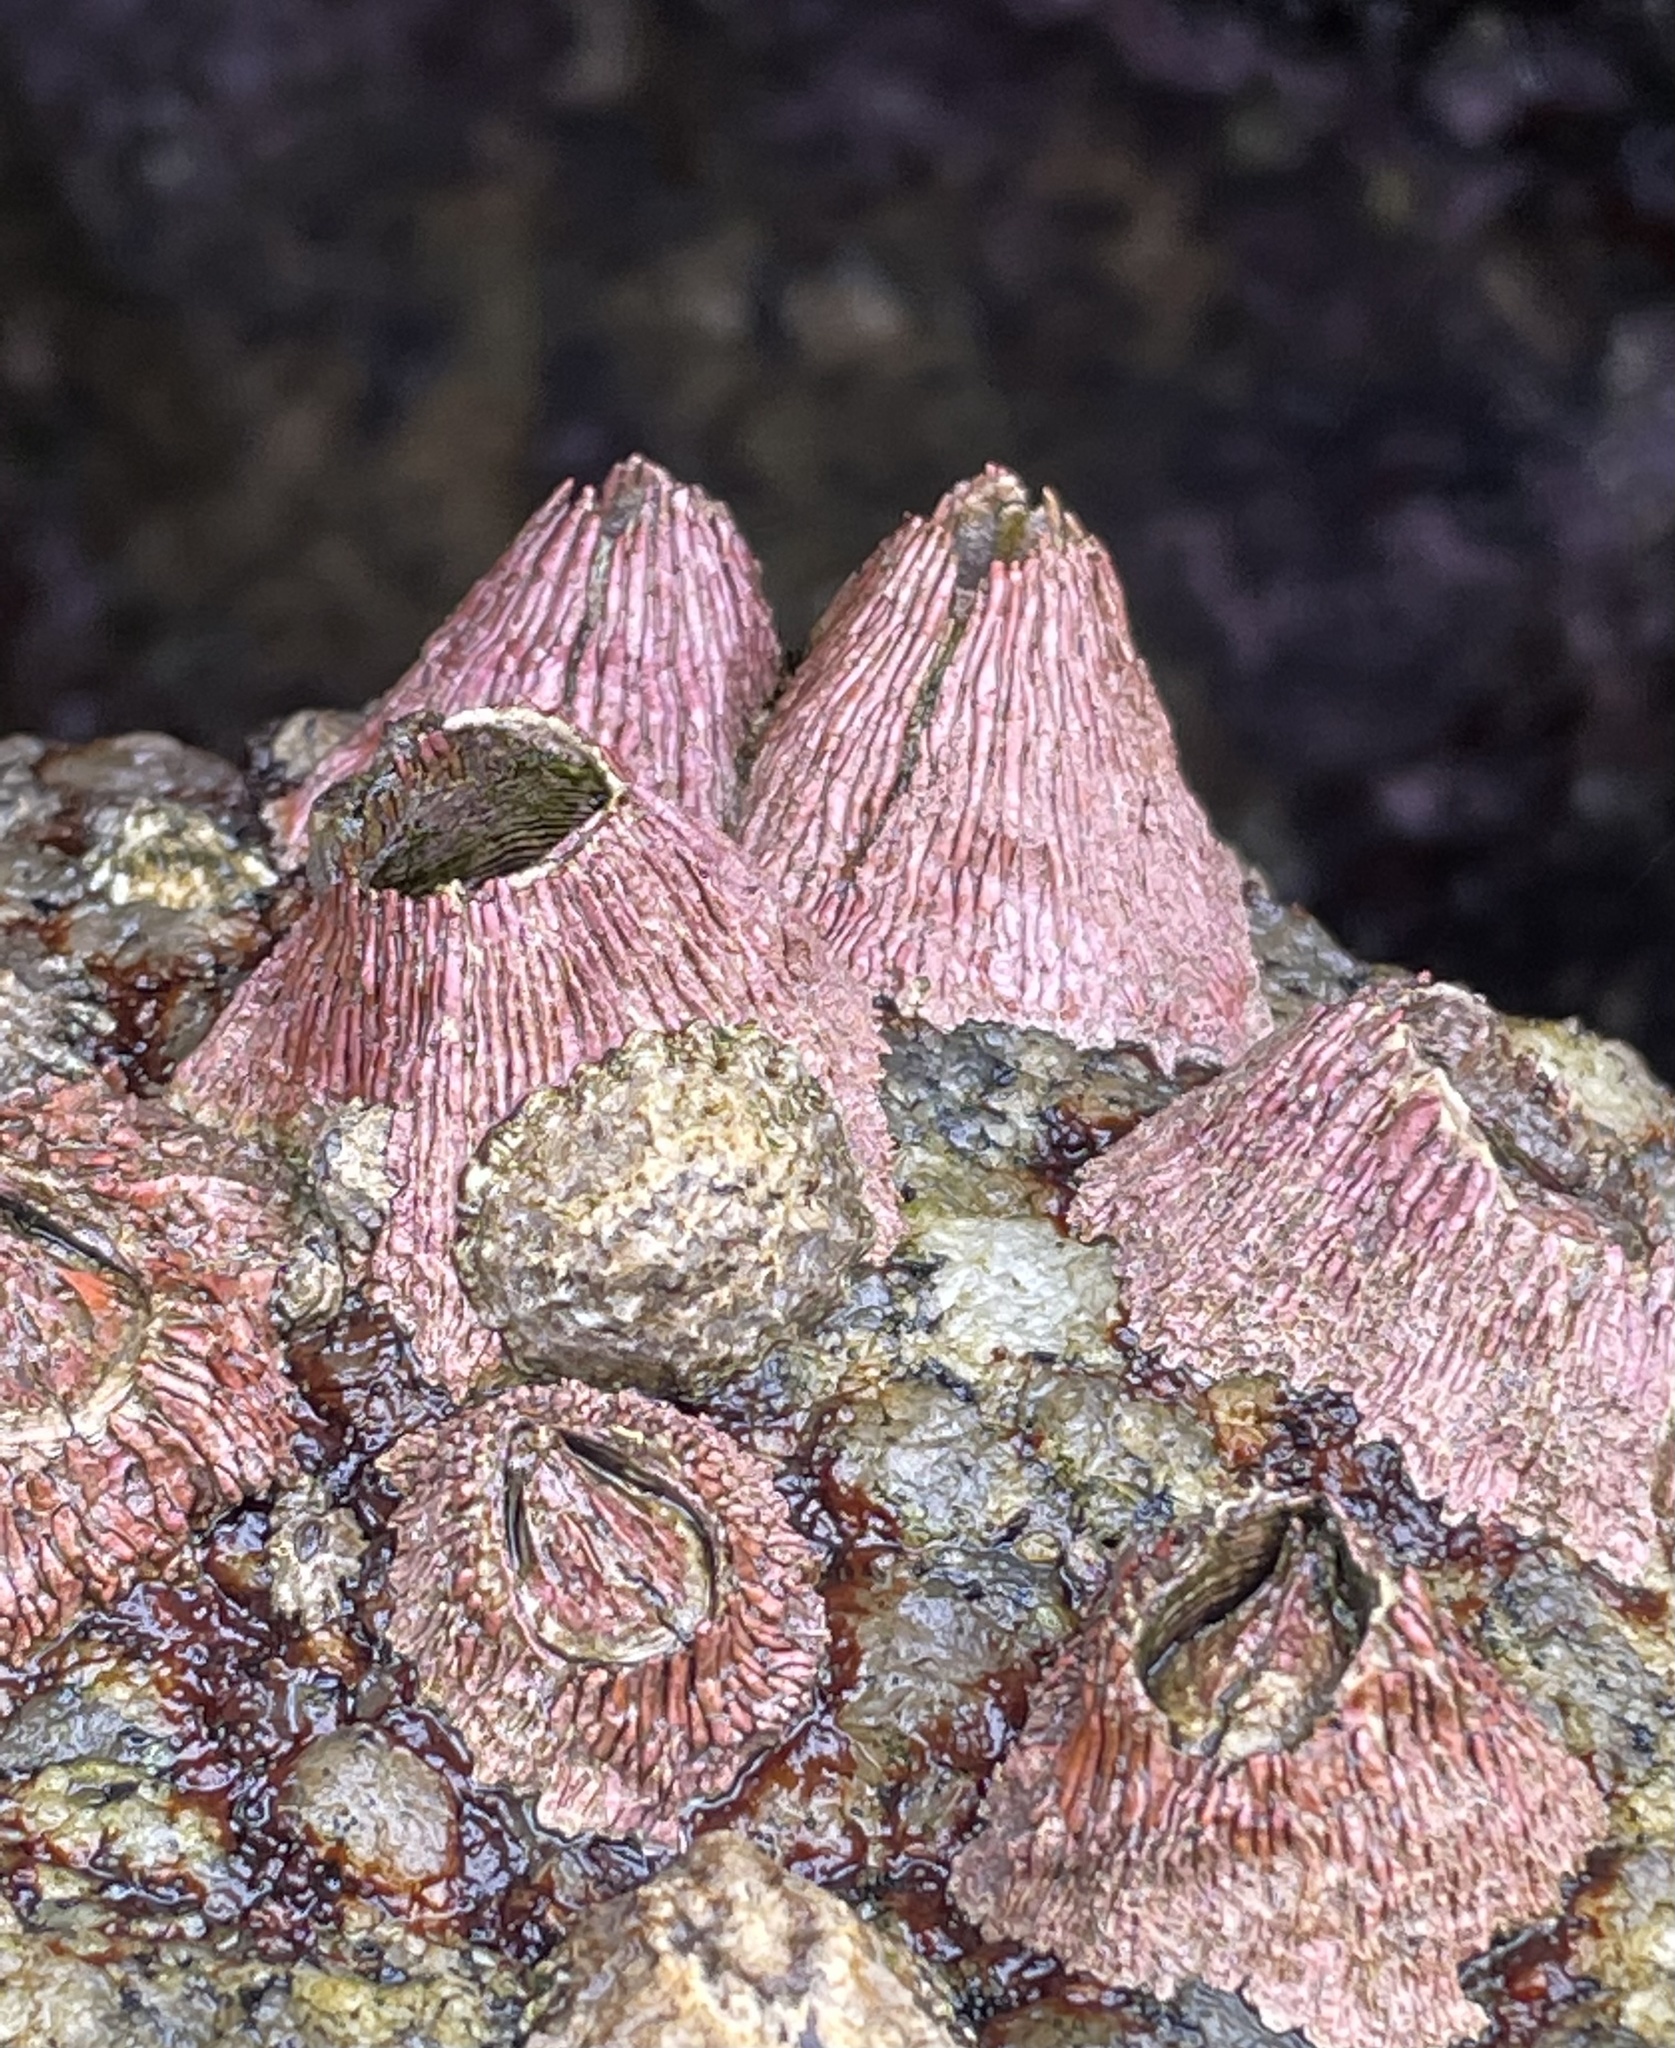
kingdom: Animalia
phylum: Arthropoda
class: Maxillopoda
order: Sessilia
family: Tetraclitidae
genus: Tetraclita
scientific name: Tetraclita rubescens
